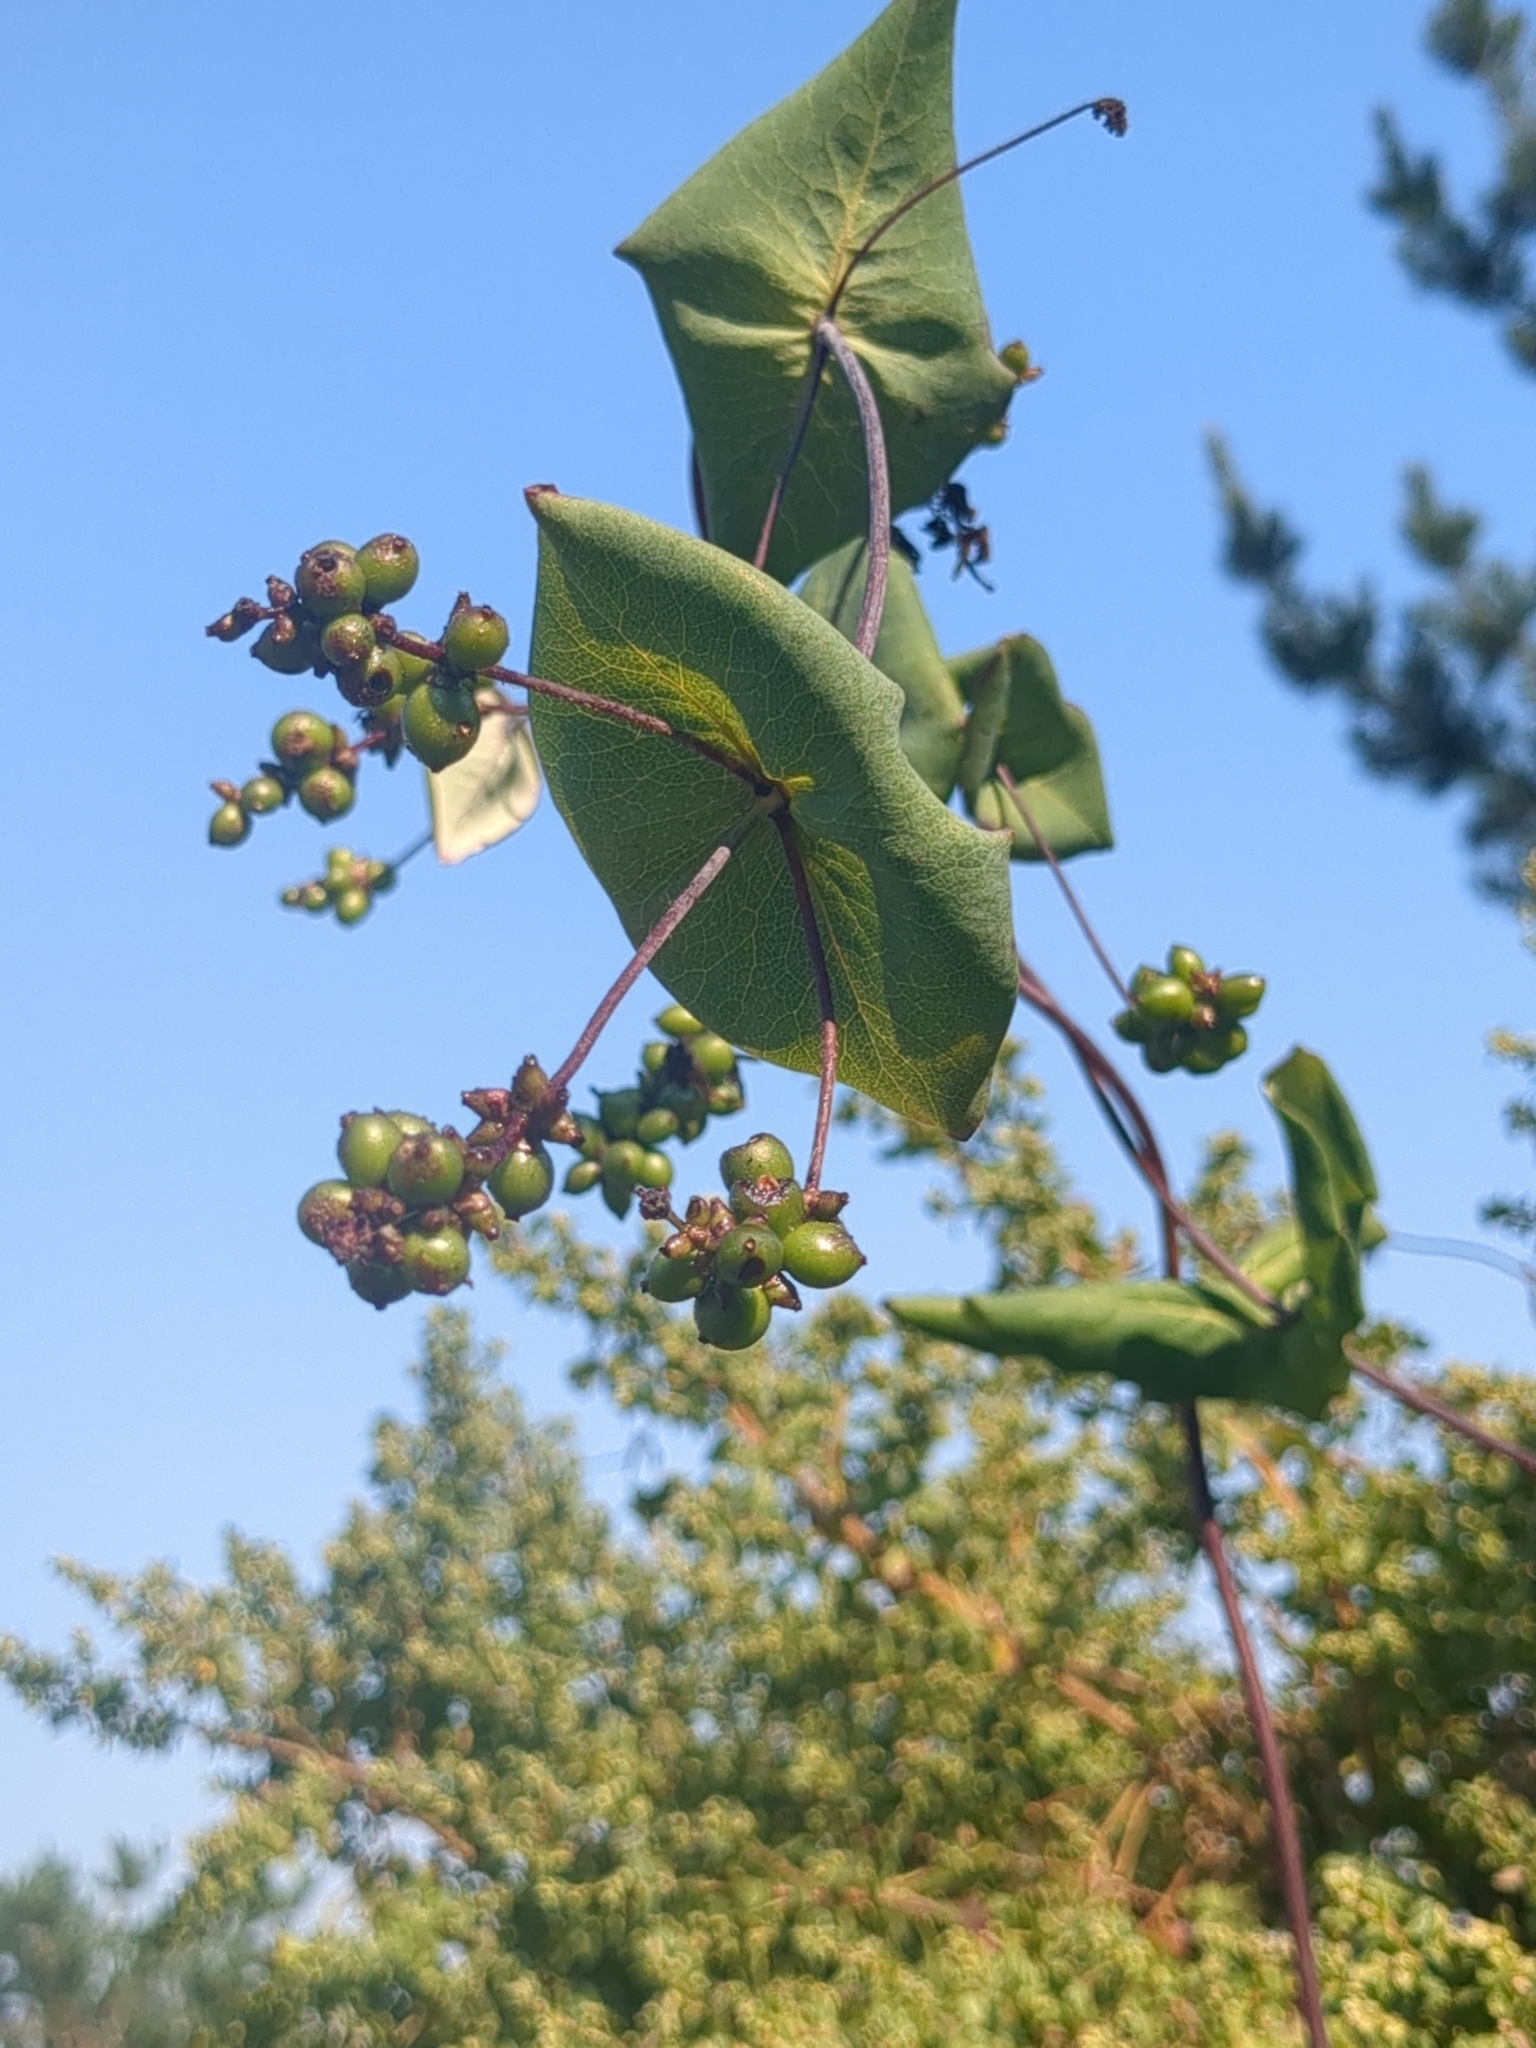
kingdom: Plantae
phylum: Tracheophyta
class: Magnoliopsida
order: Dipsacales
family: Caprifoliaceae
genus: Lonicera
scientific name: Lonicera hispidula
